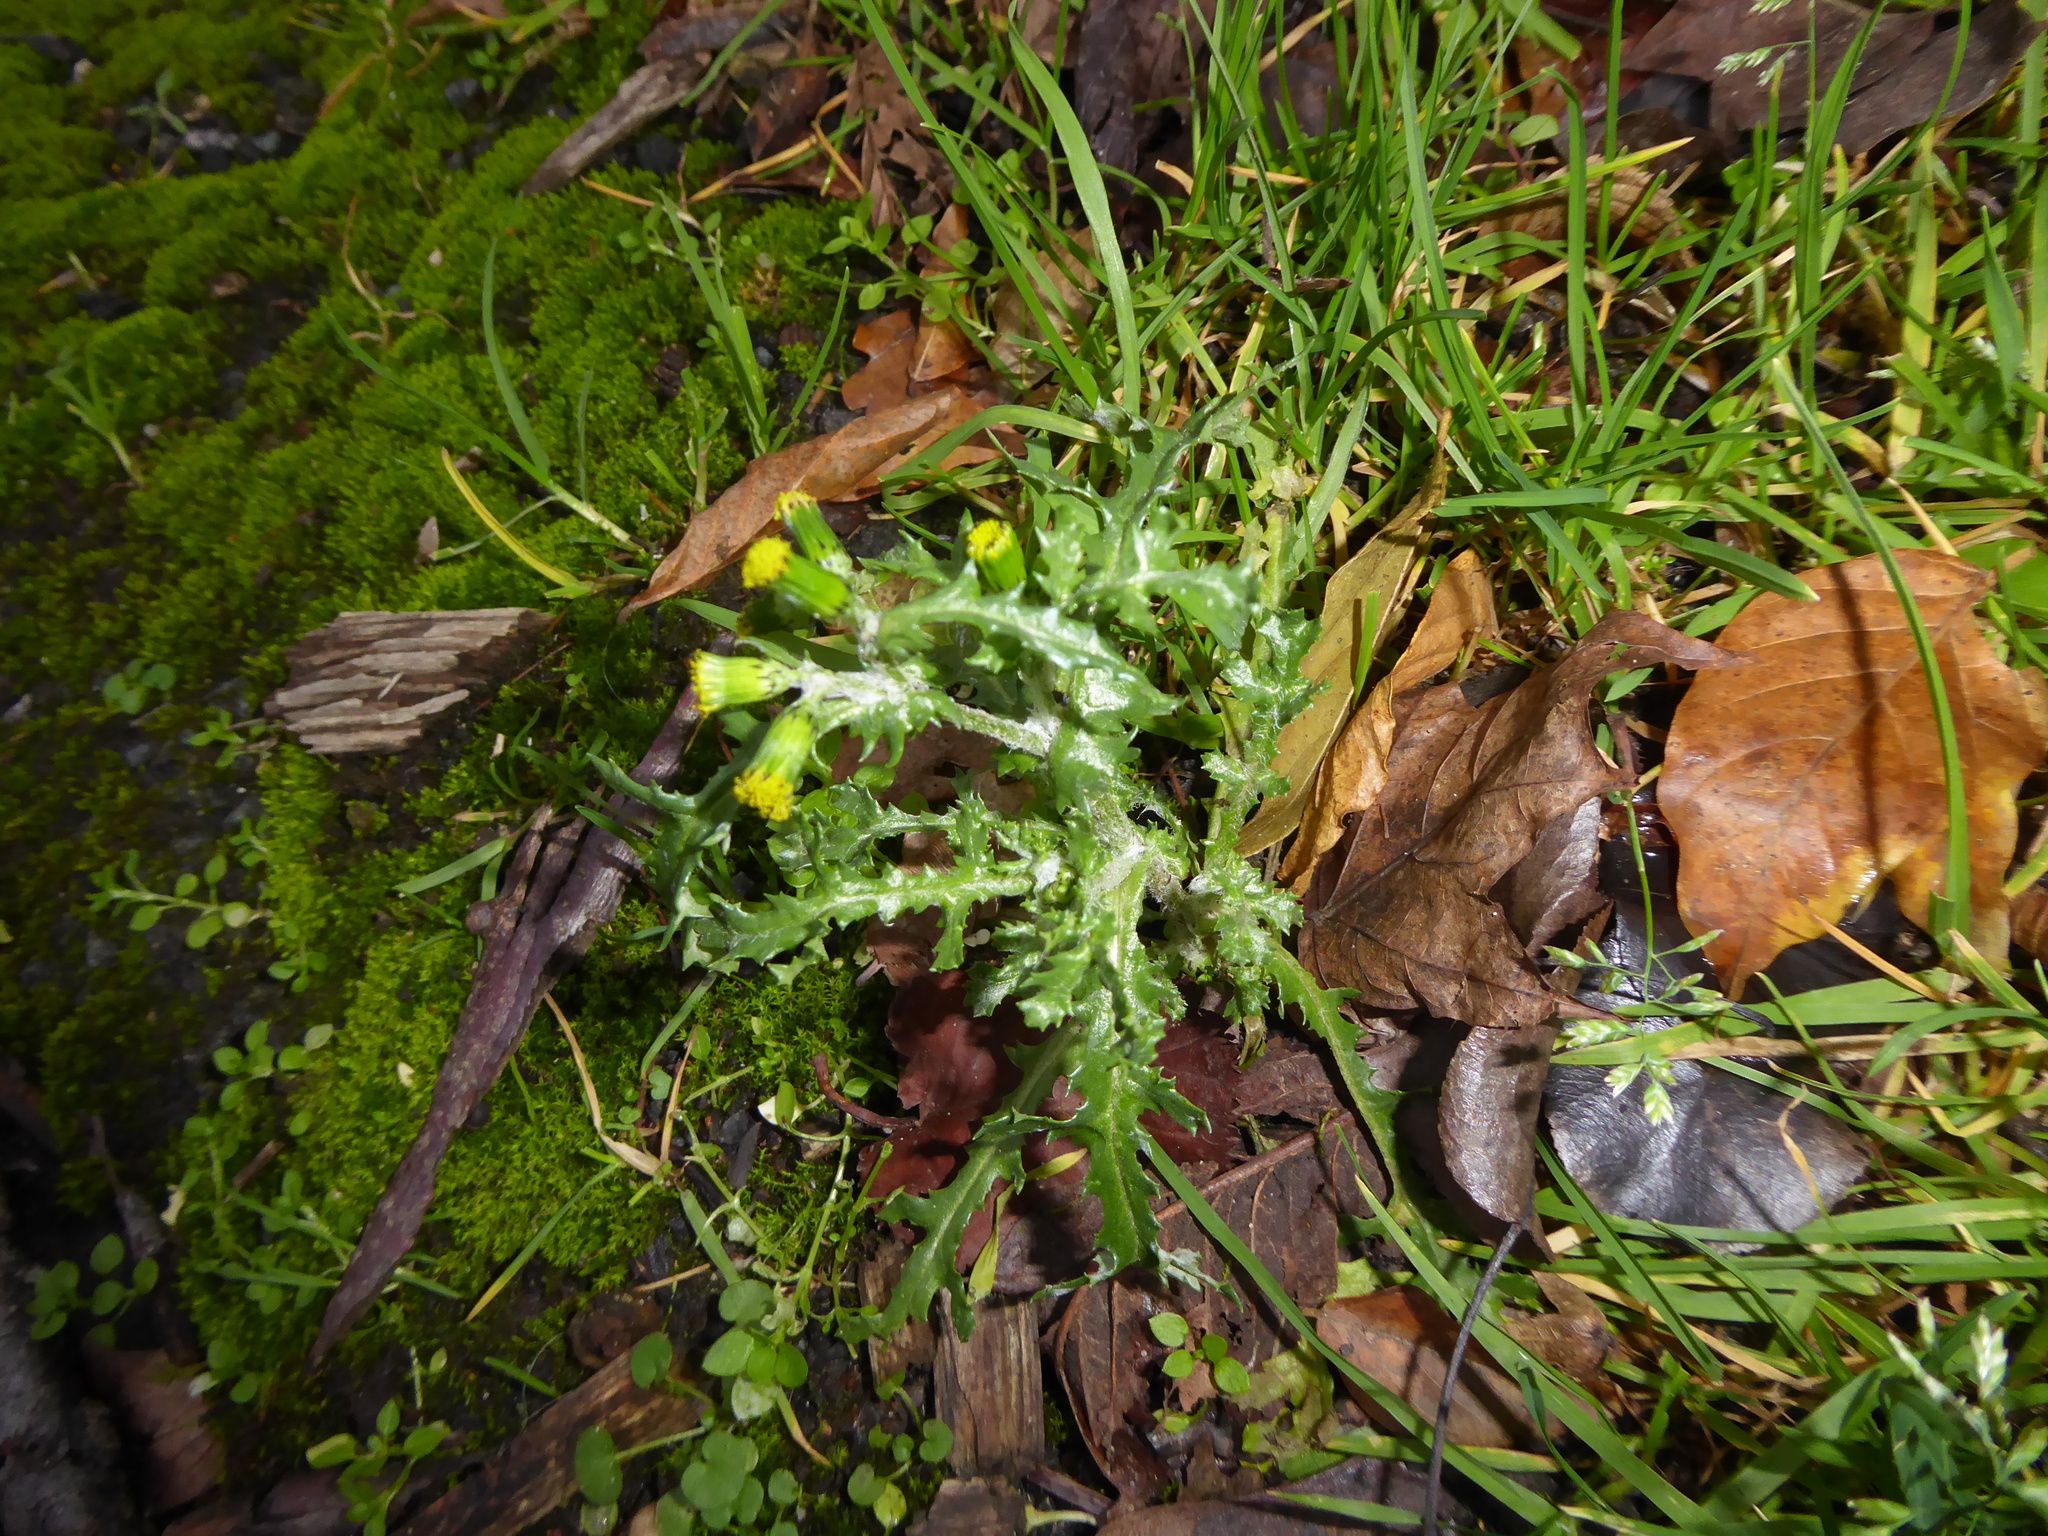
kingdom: Plantae
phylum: Tracheophyta
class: Magnoliopsida
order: Asterales
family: Asteraceae
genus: Senecio
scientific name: Senecio vulgaris
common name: Old-man-in-the-spring
